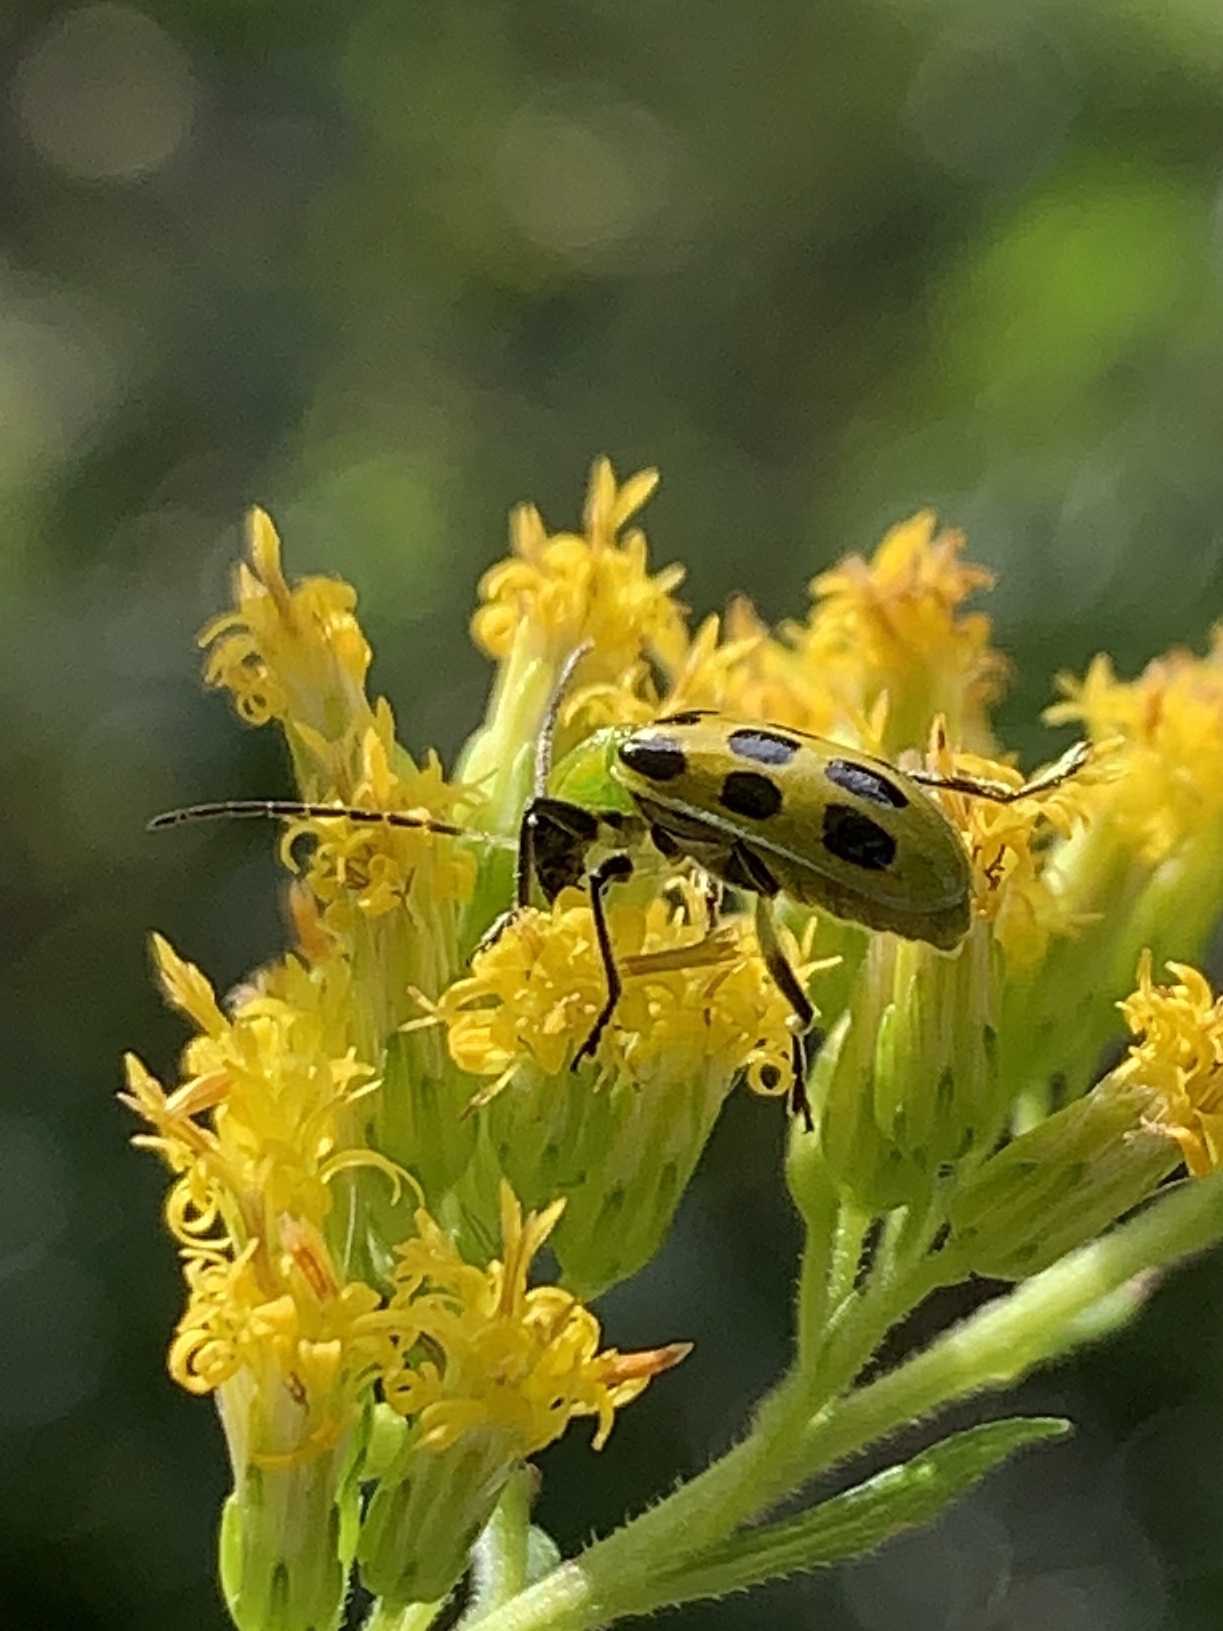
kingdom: Animalia
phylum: Arthropoda
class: Insecta
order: Coleoptera
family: Chrysomelidae
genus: Diabrotica
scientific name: Diabrotica undecimpunctata
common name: Spotted cucumber beetle
